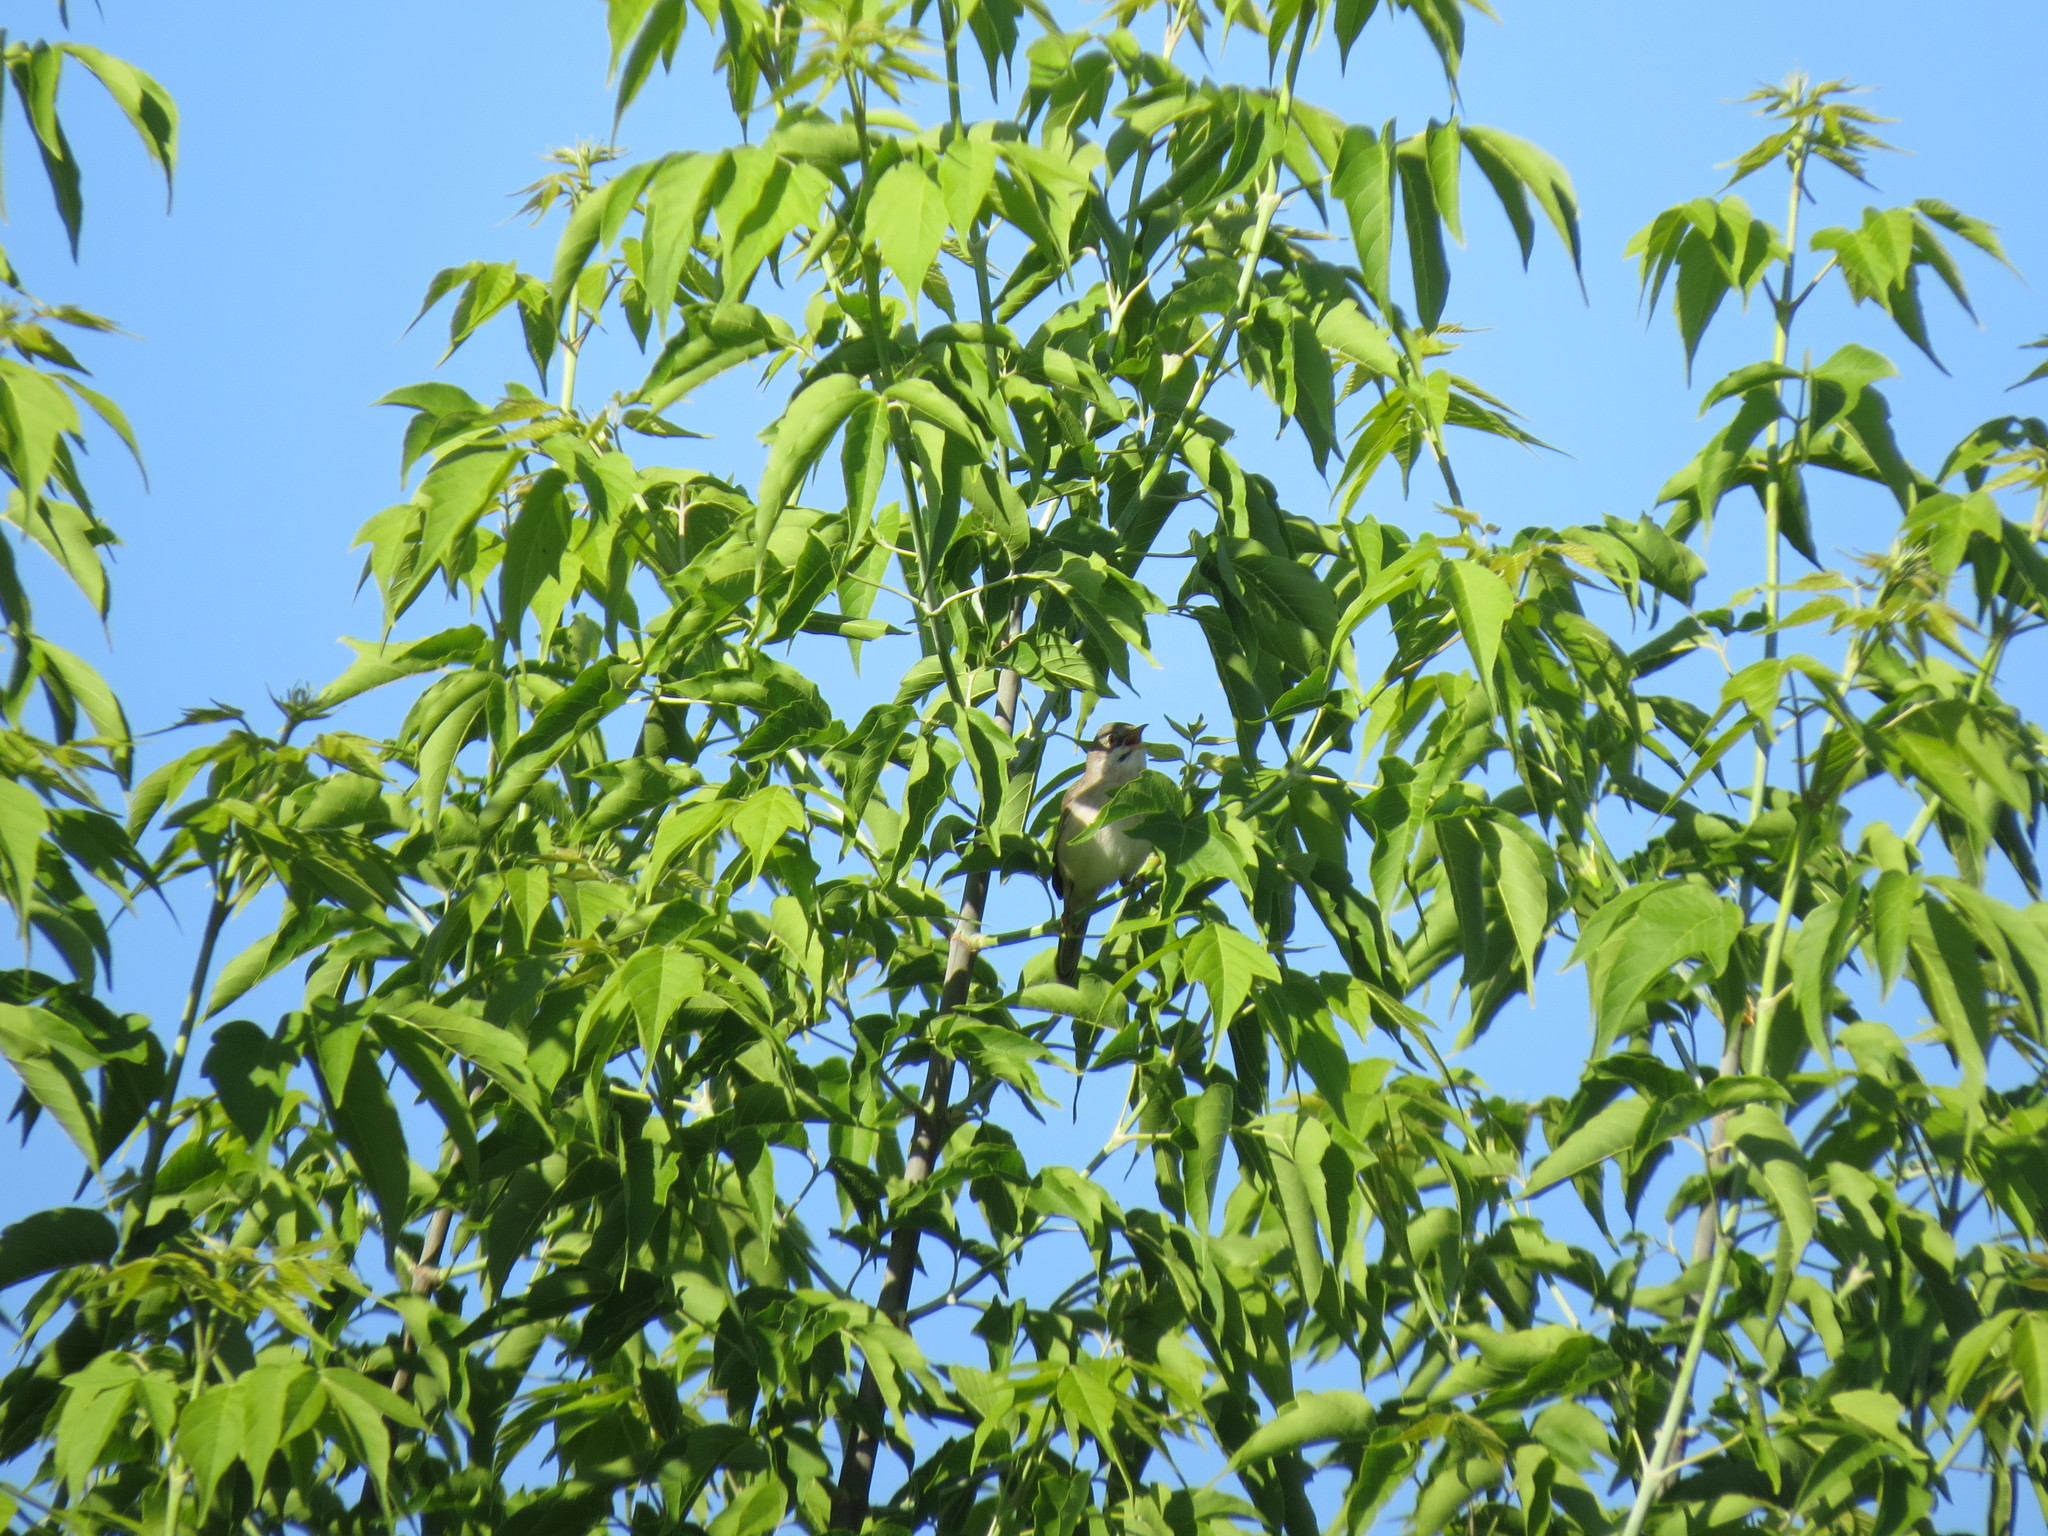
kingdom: Animalia
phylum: Chordata
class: Aves
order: Passeriformes
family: Sylviidae
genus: Sylvia
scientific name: Sylvia communis
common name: Common whitethroat
